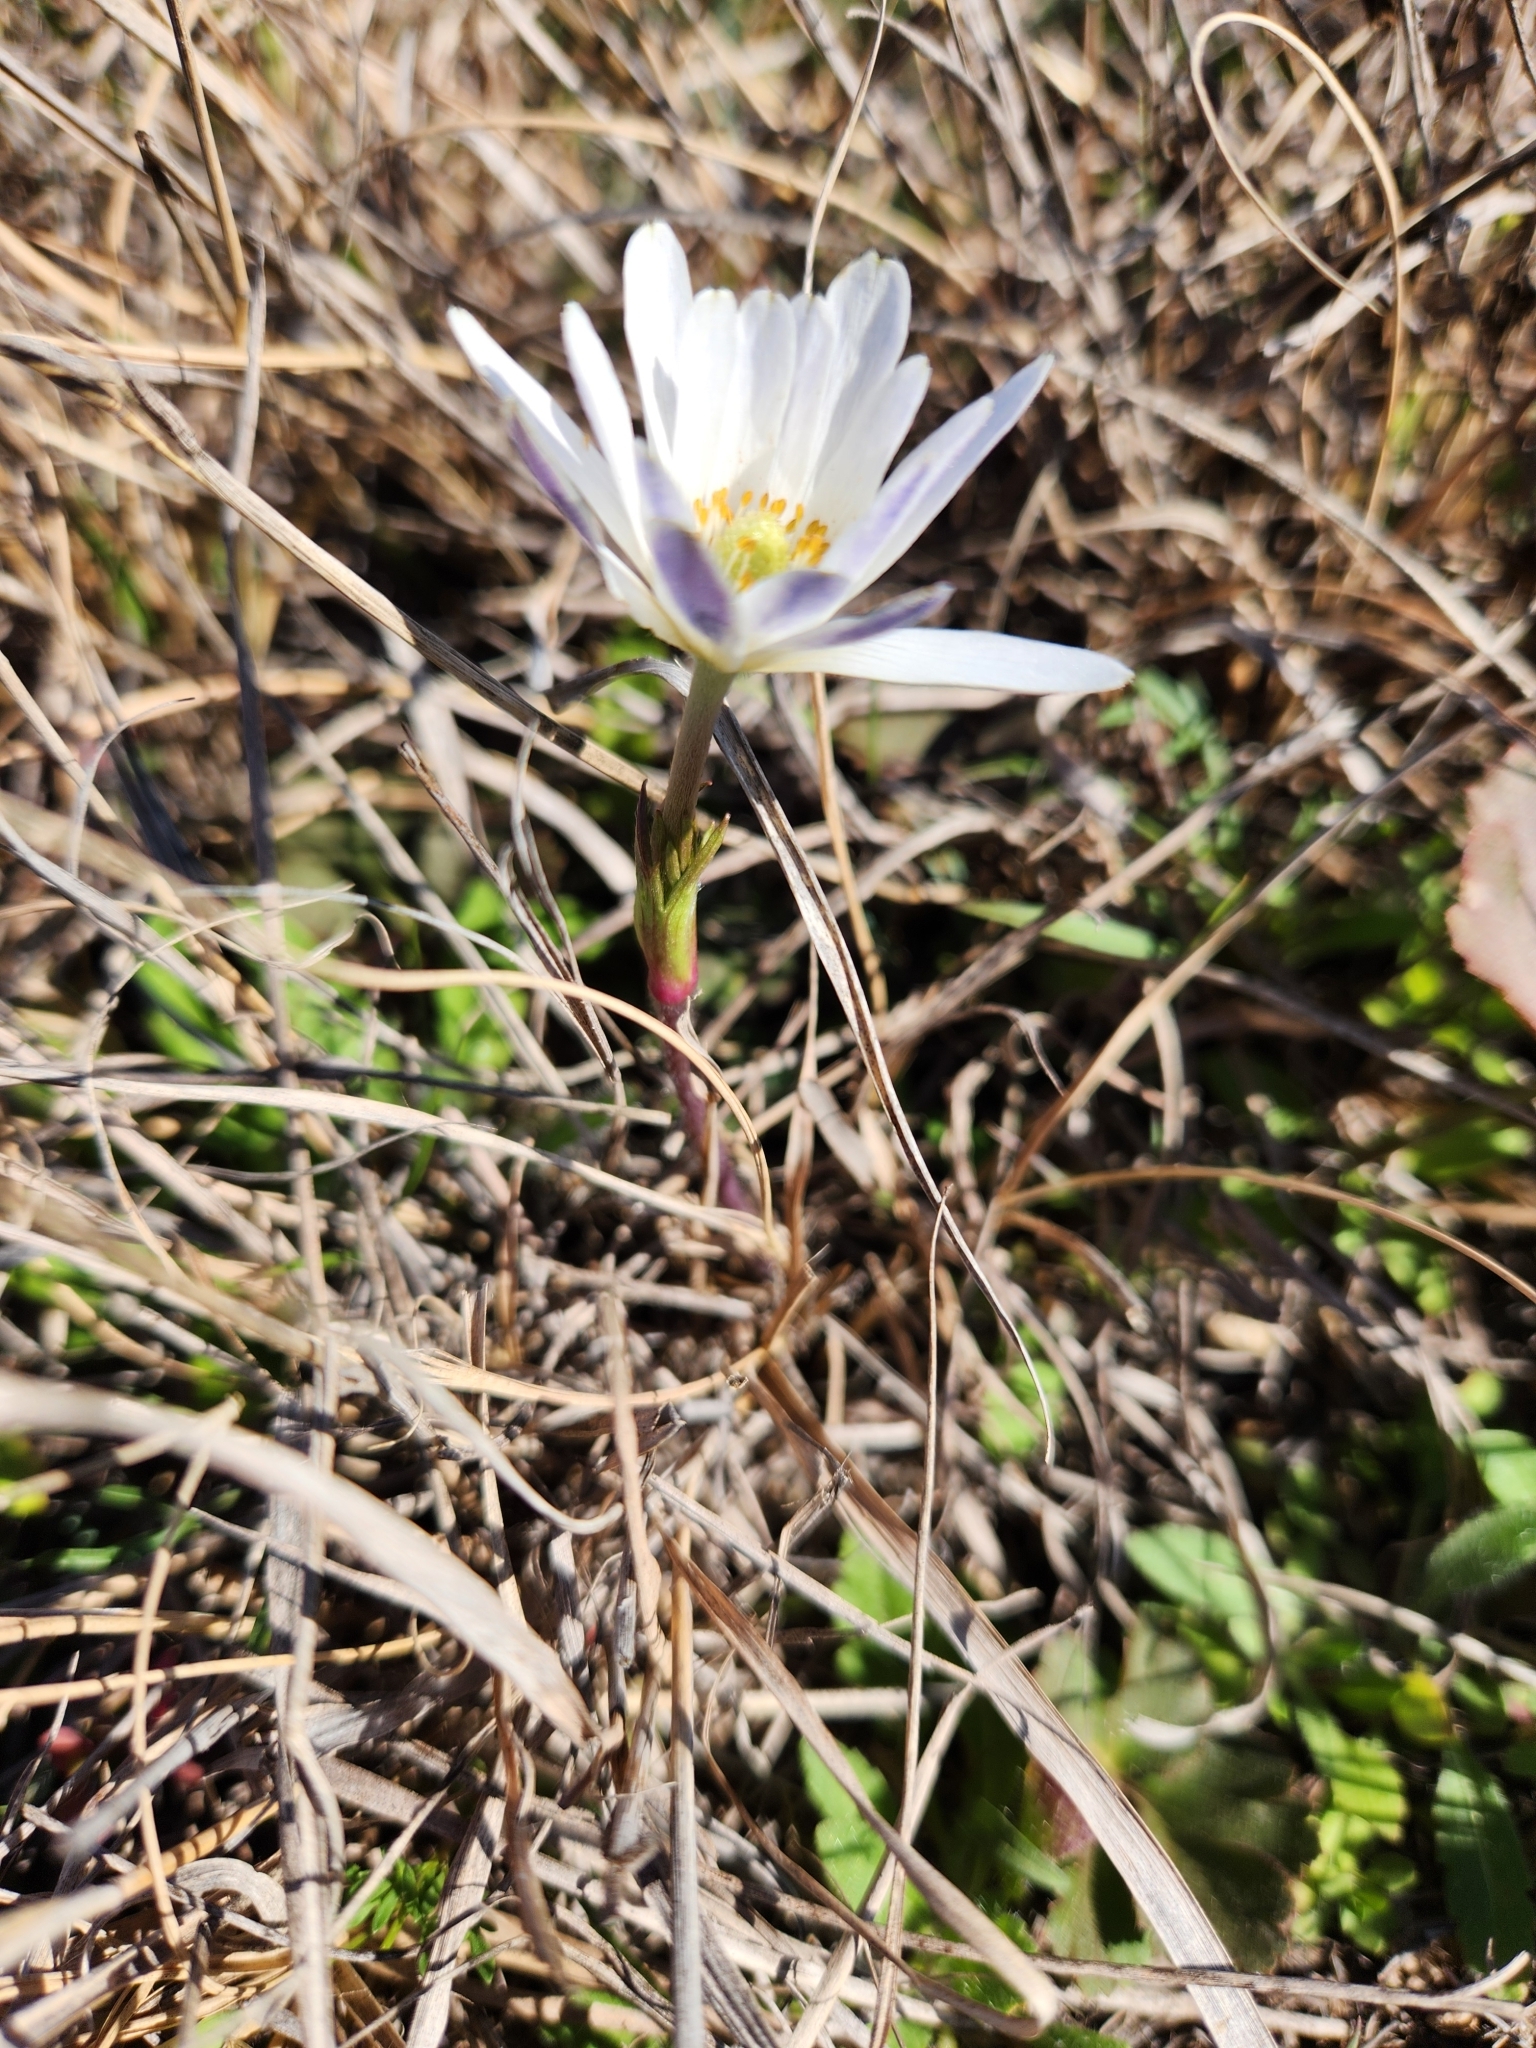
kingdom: Plantae
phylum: Tracheophyta
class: Magnoliopsida
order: Ranunculales
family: Ranunculaceae
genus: Anemone
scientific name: Anemone berlandieri
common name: Ten-petal anemone
